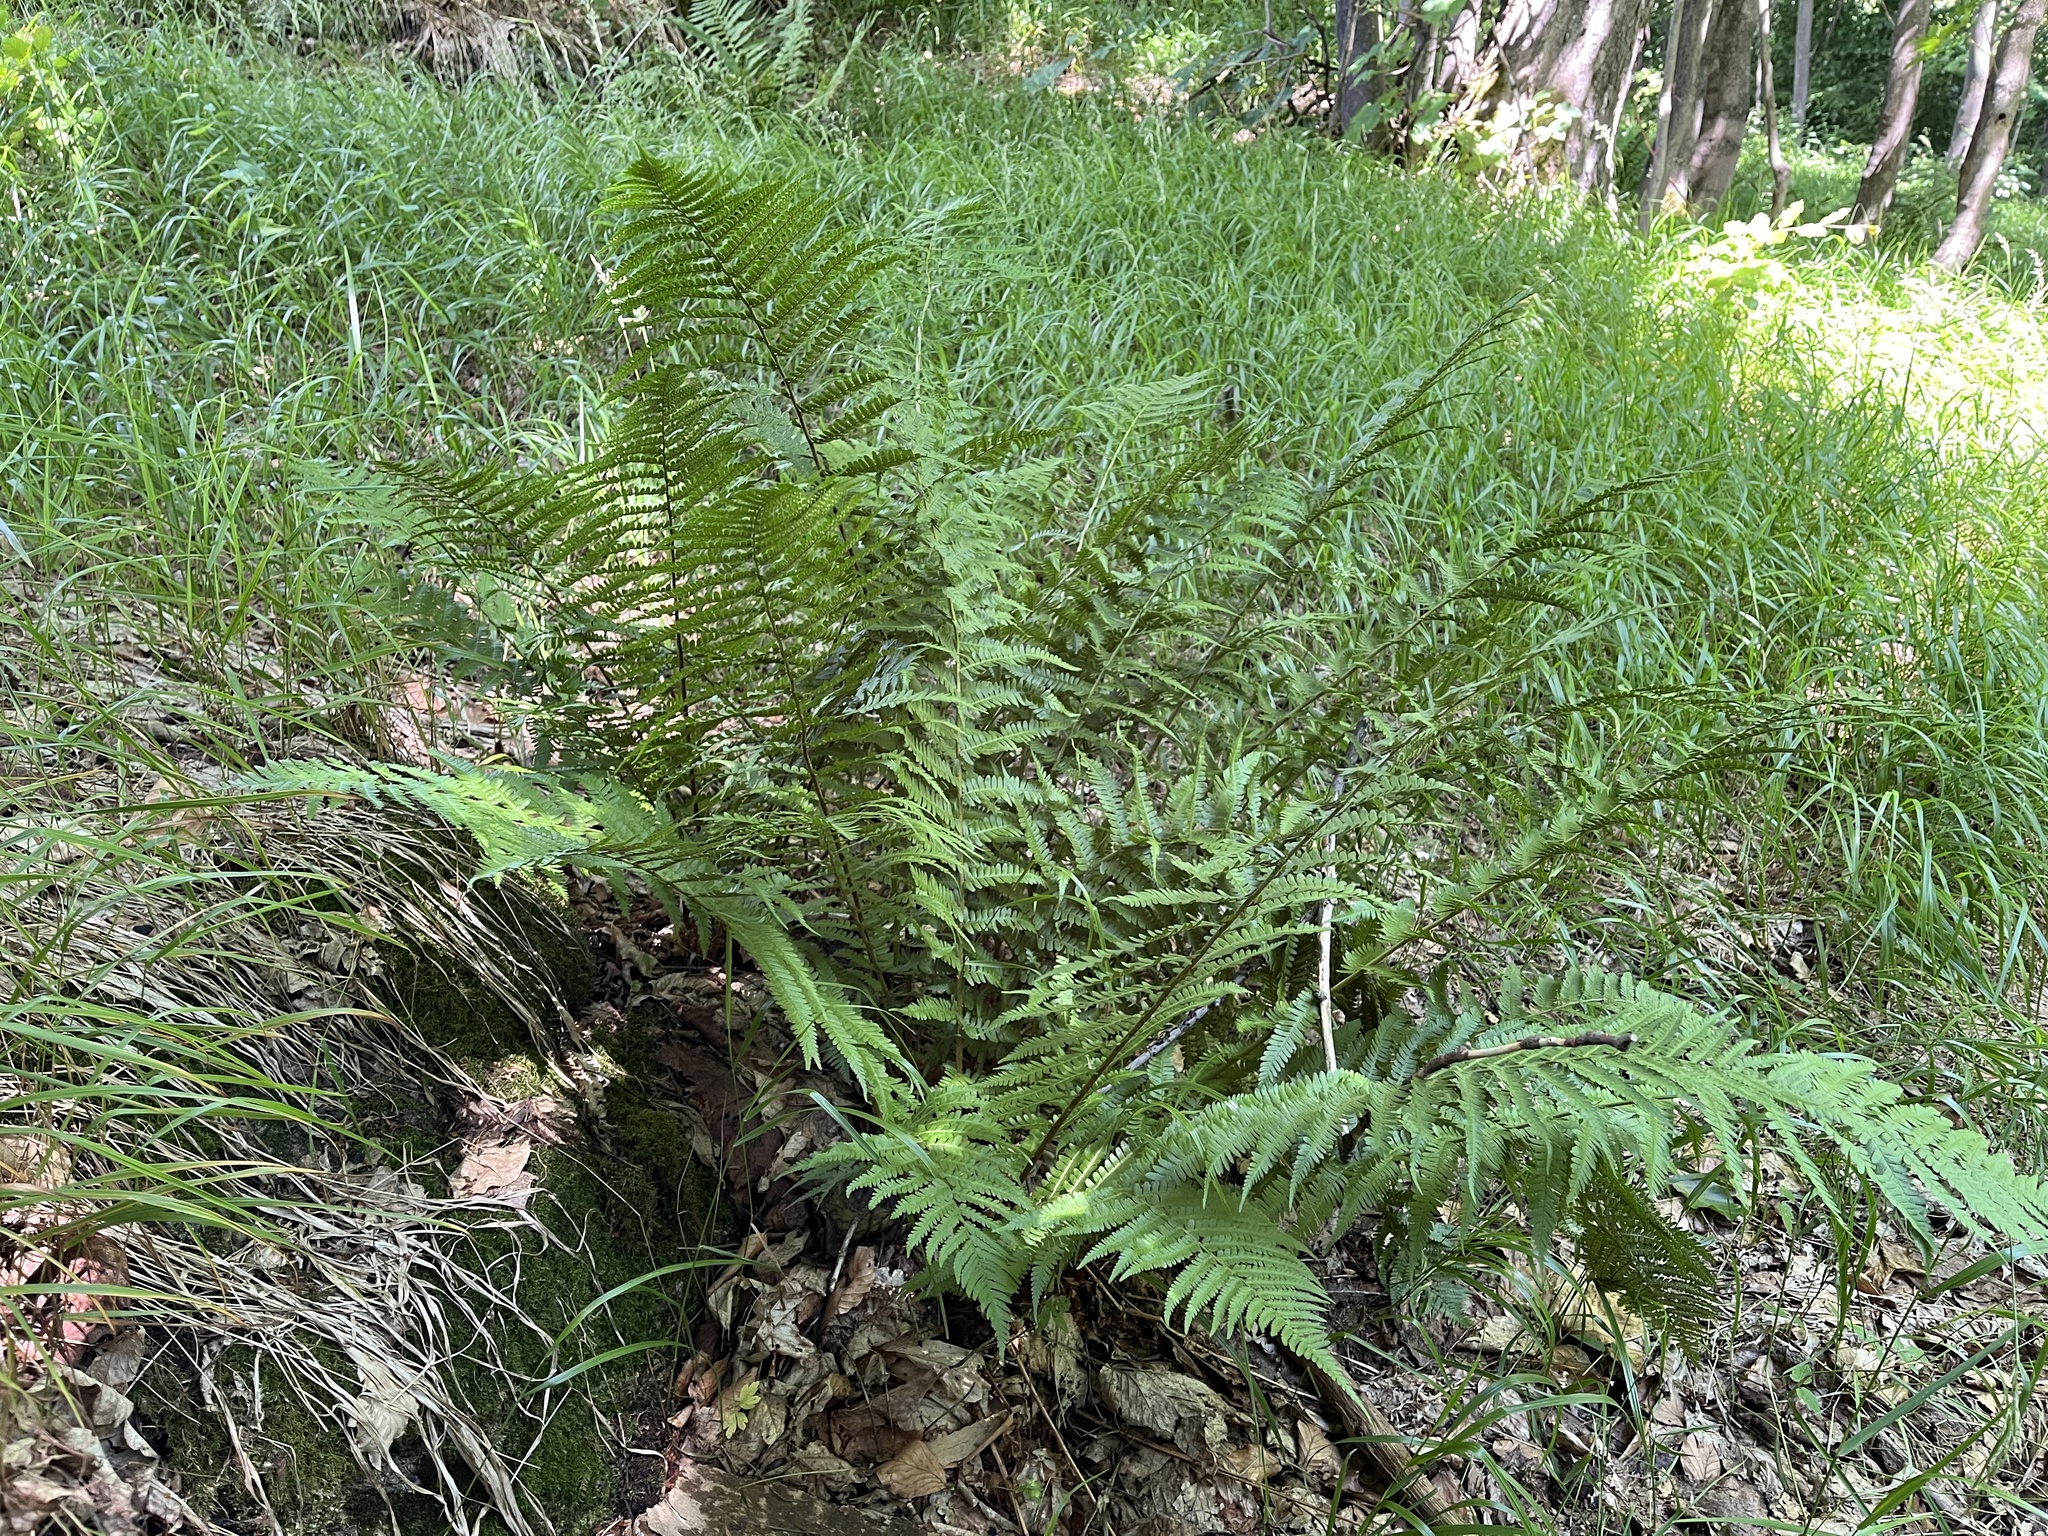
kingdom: Plantae
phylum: Tracheophyta
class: Polypodiopsida
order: Polypodiales
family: Dryopteridaceae
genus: Dryopteris
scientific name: Dryopteris filix-mas
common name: Male fern
